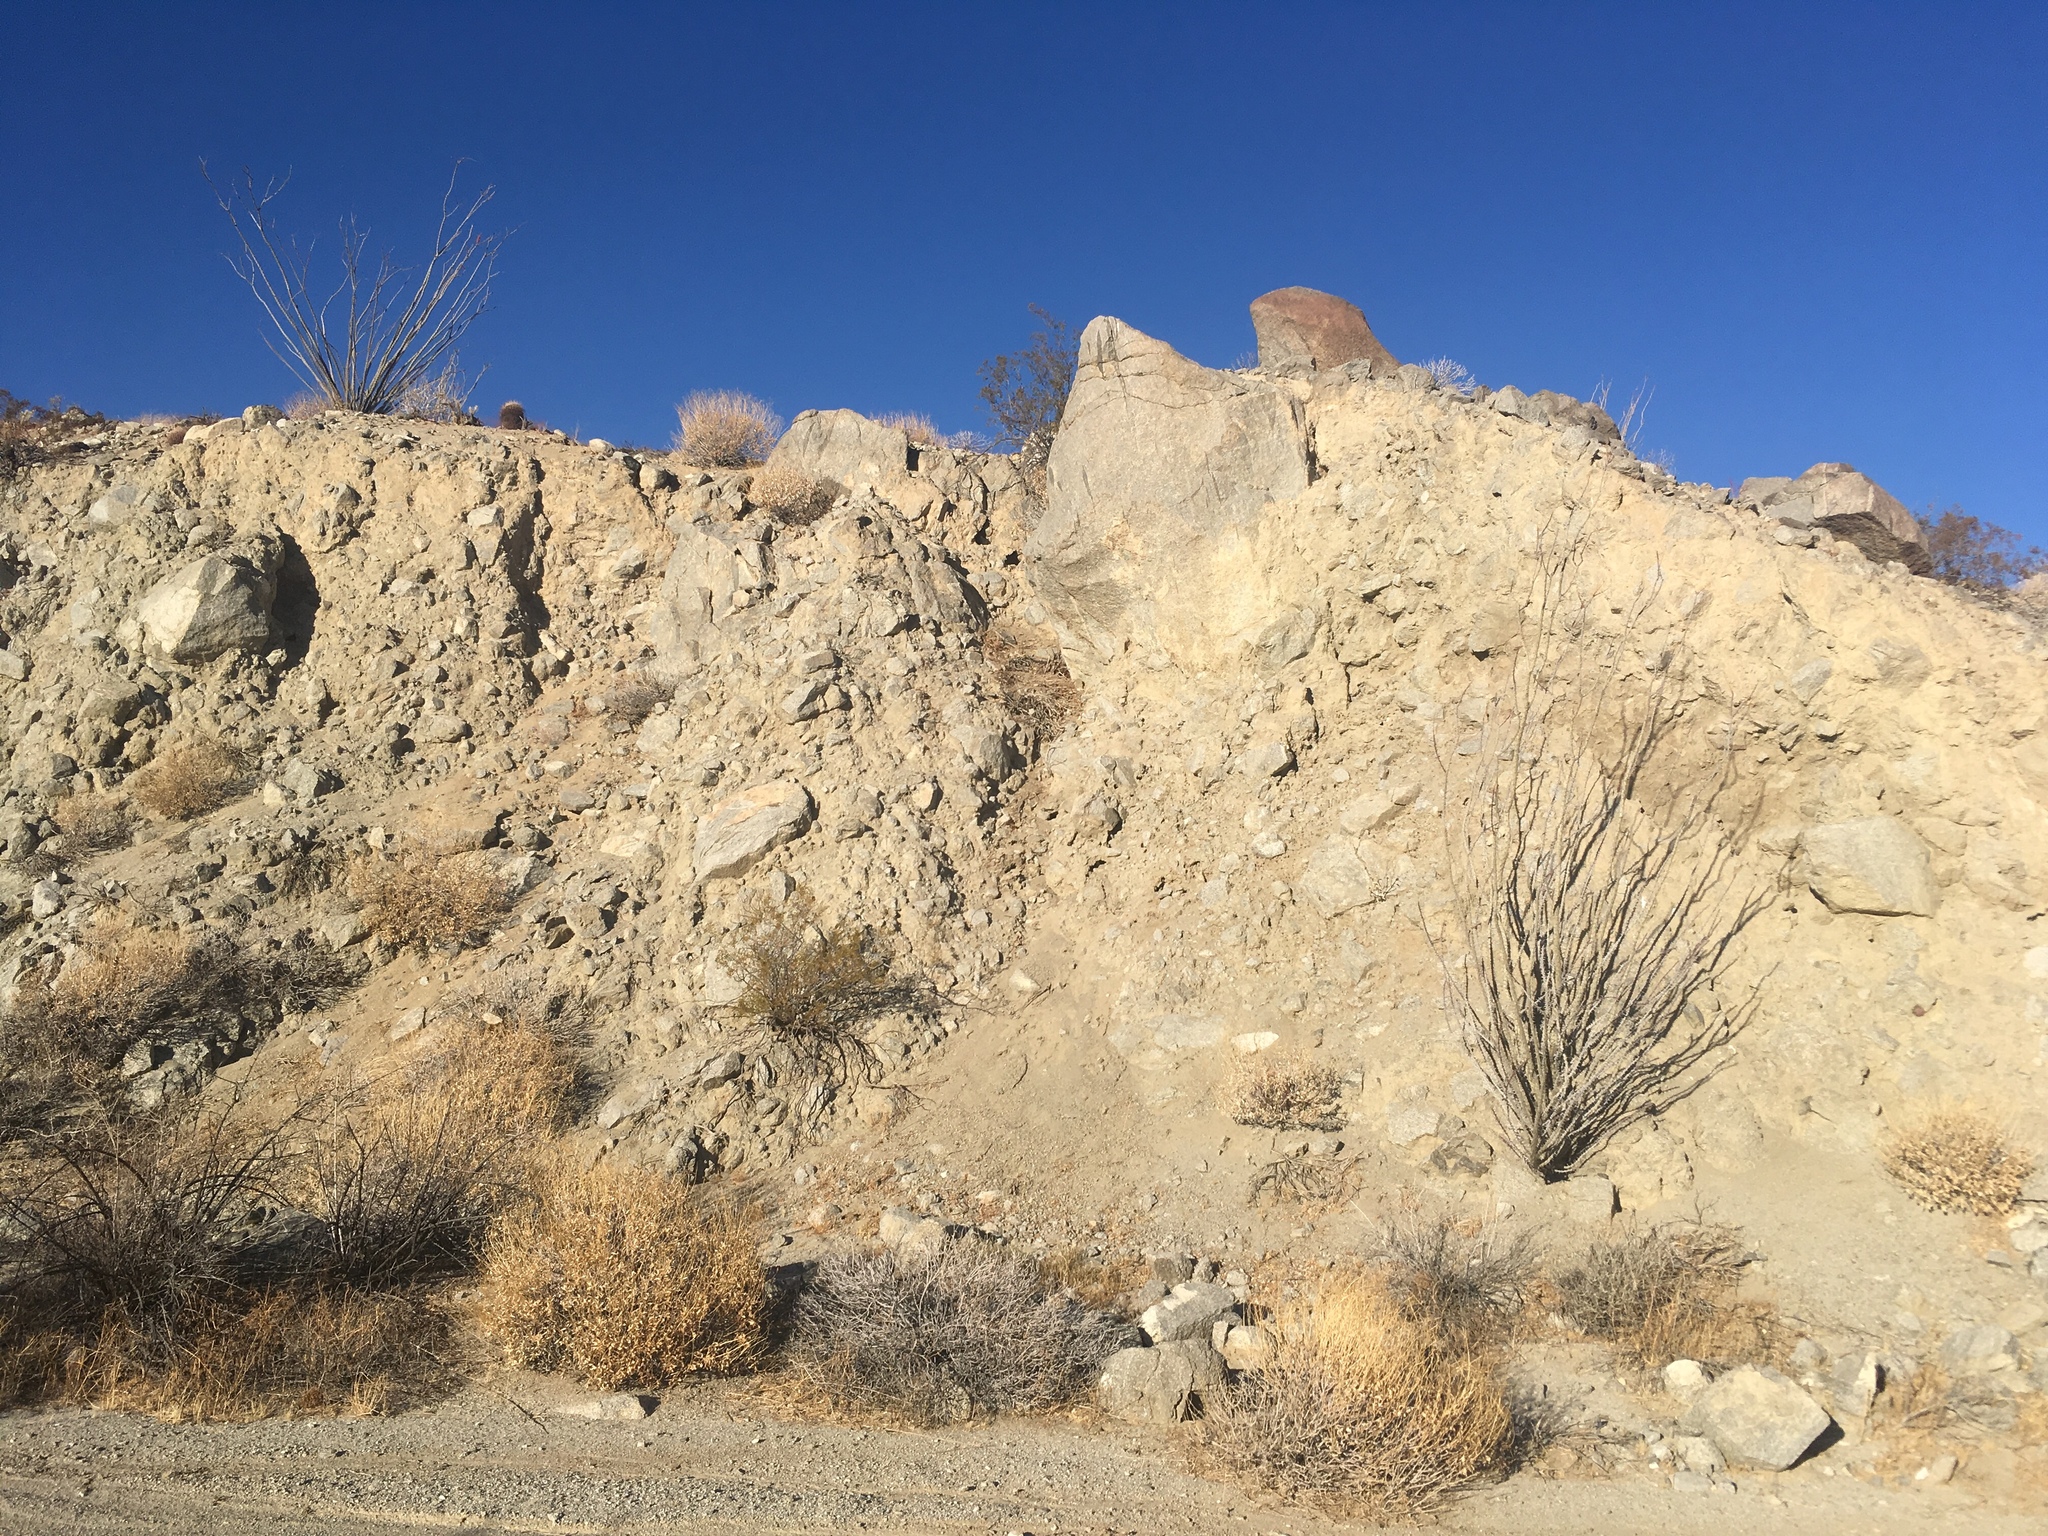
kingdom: Plantae
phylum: Tracheophyta
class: Magnoliopsida
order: Ericales
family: Fouquieriaceae
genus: Fouquieria
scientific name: Fouquieria splendens
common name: Vine-cactus
